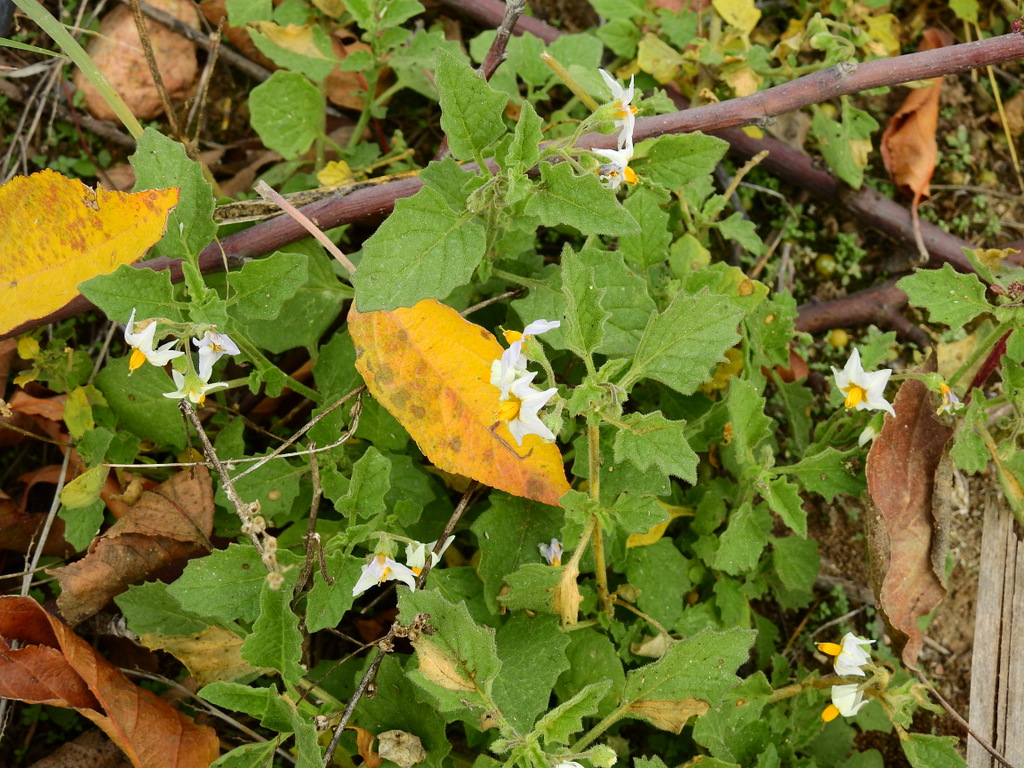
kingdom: Plantae
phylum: Tracheophyta
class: Magnoliopsida
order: Solanales
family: Solanaceae
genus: Solanum
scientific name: Solanum tweedianum
